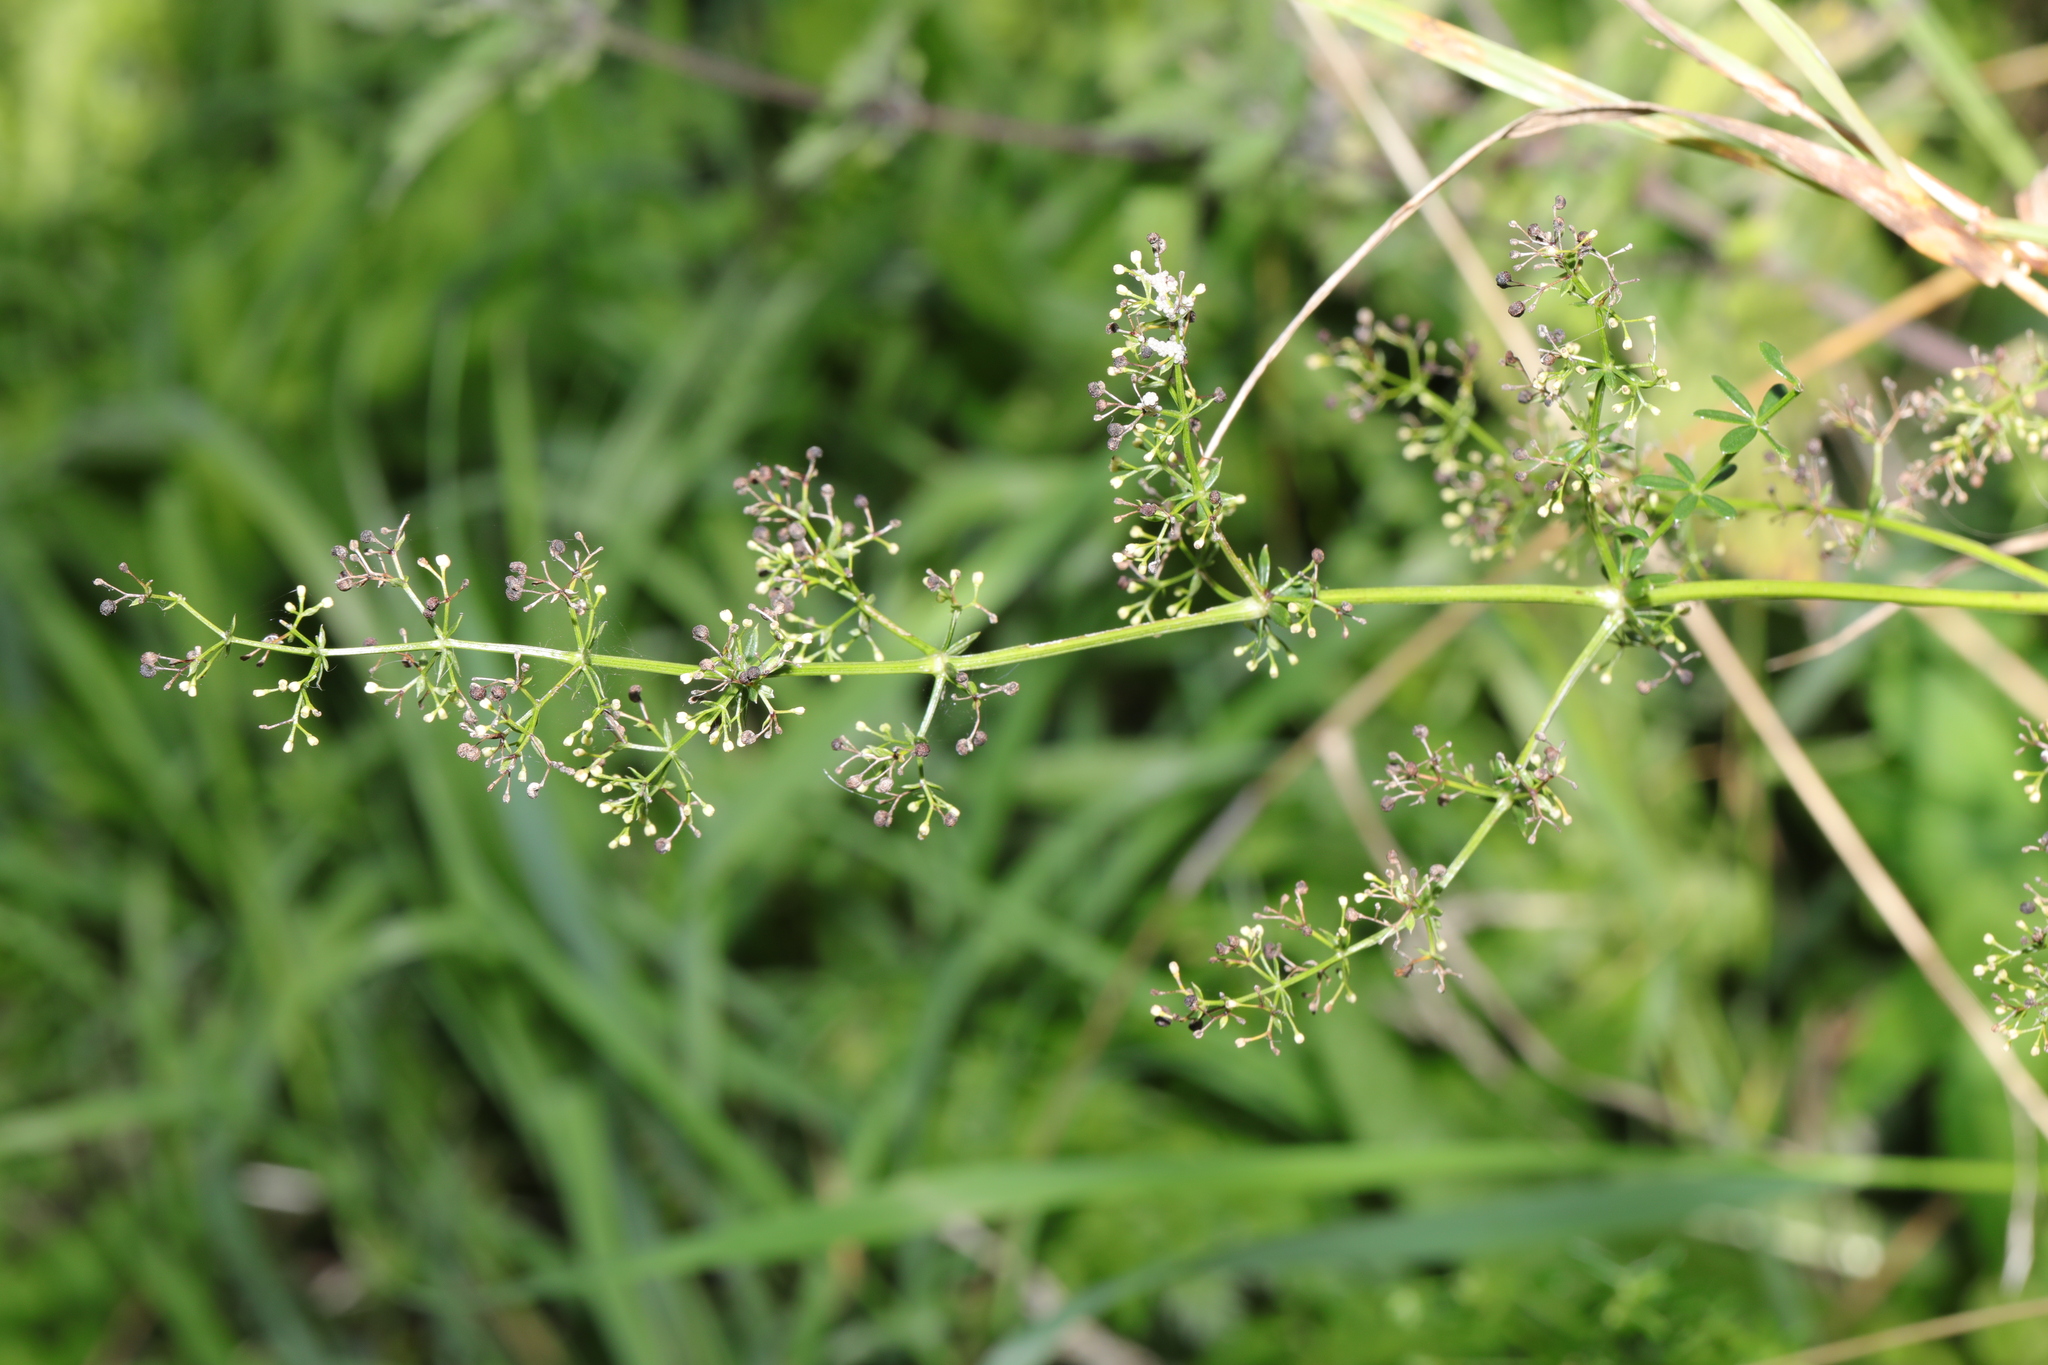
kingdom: Plantae
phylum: Tracheophyta
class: Magnoliopsida
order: Gentianales
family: Rubiaceae
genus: Galium
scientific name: Galium mollugo
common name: Hedge bedstraw
